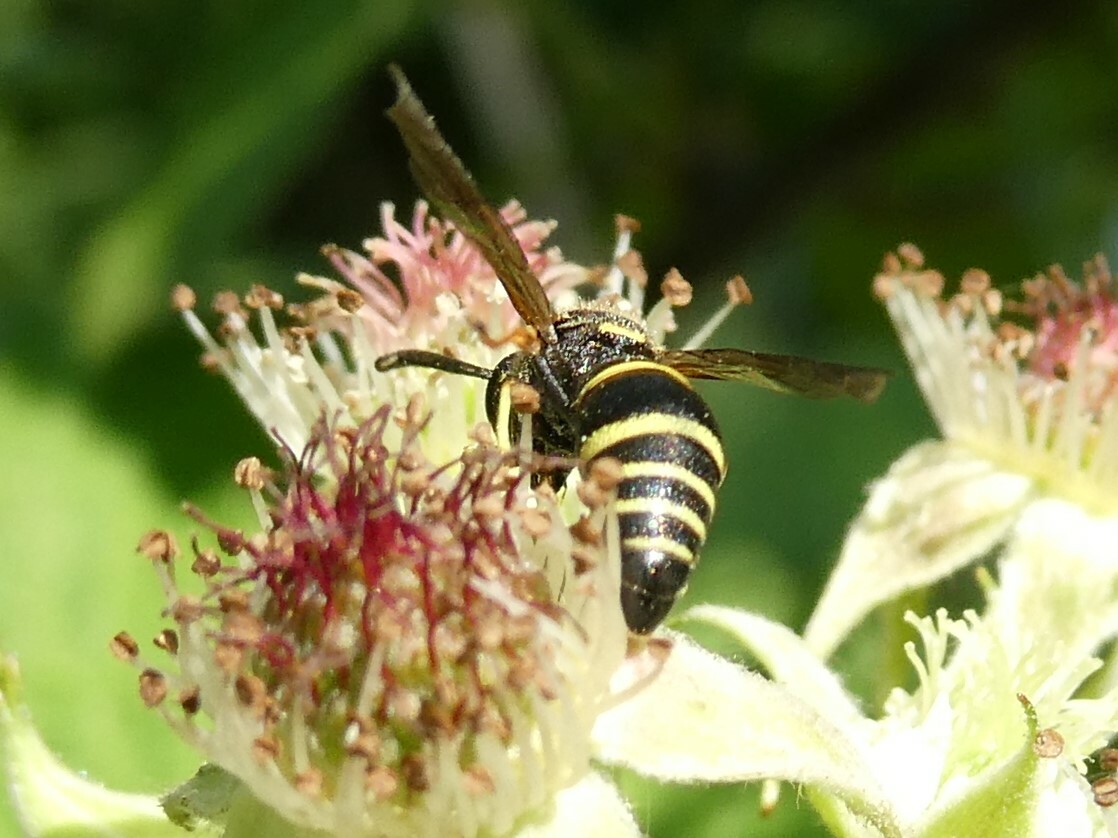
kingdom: Animalia
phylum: Arthropoda
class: Insecta
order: Hymenoptera
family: Eumenidae
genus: Euodynerus
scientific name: Euodynerus foraminatus
